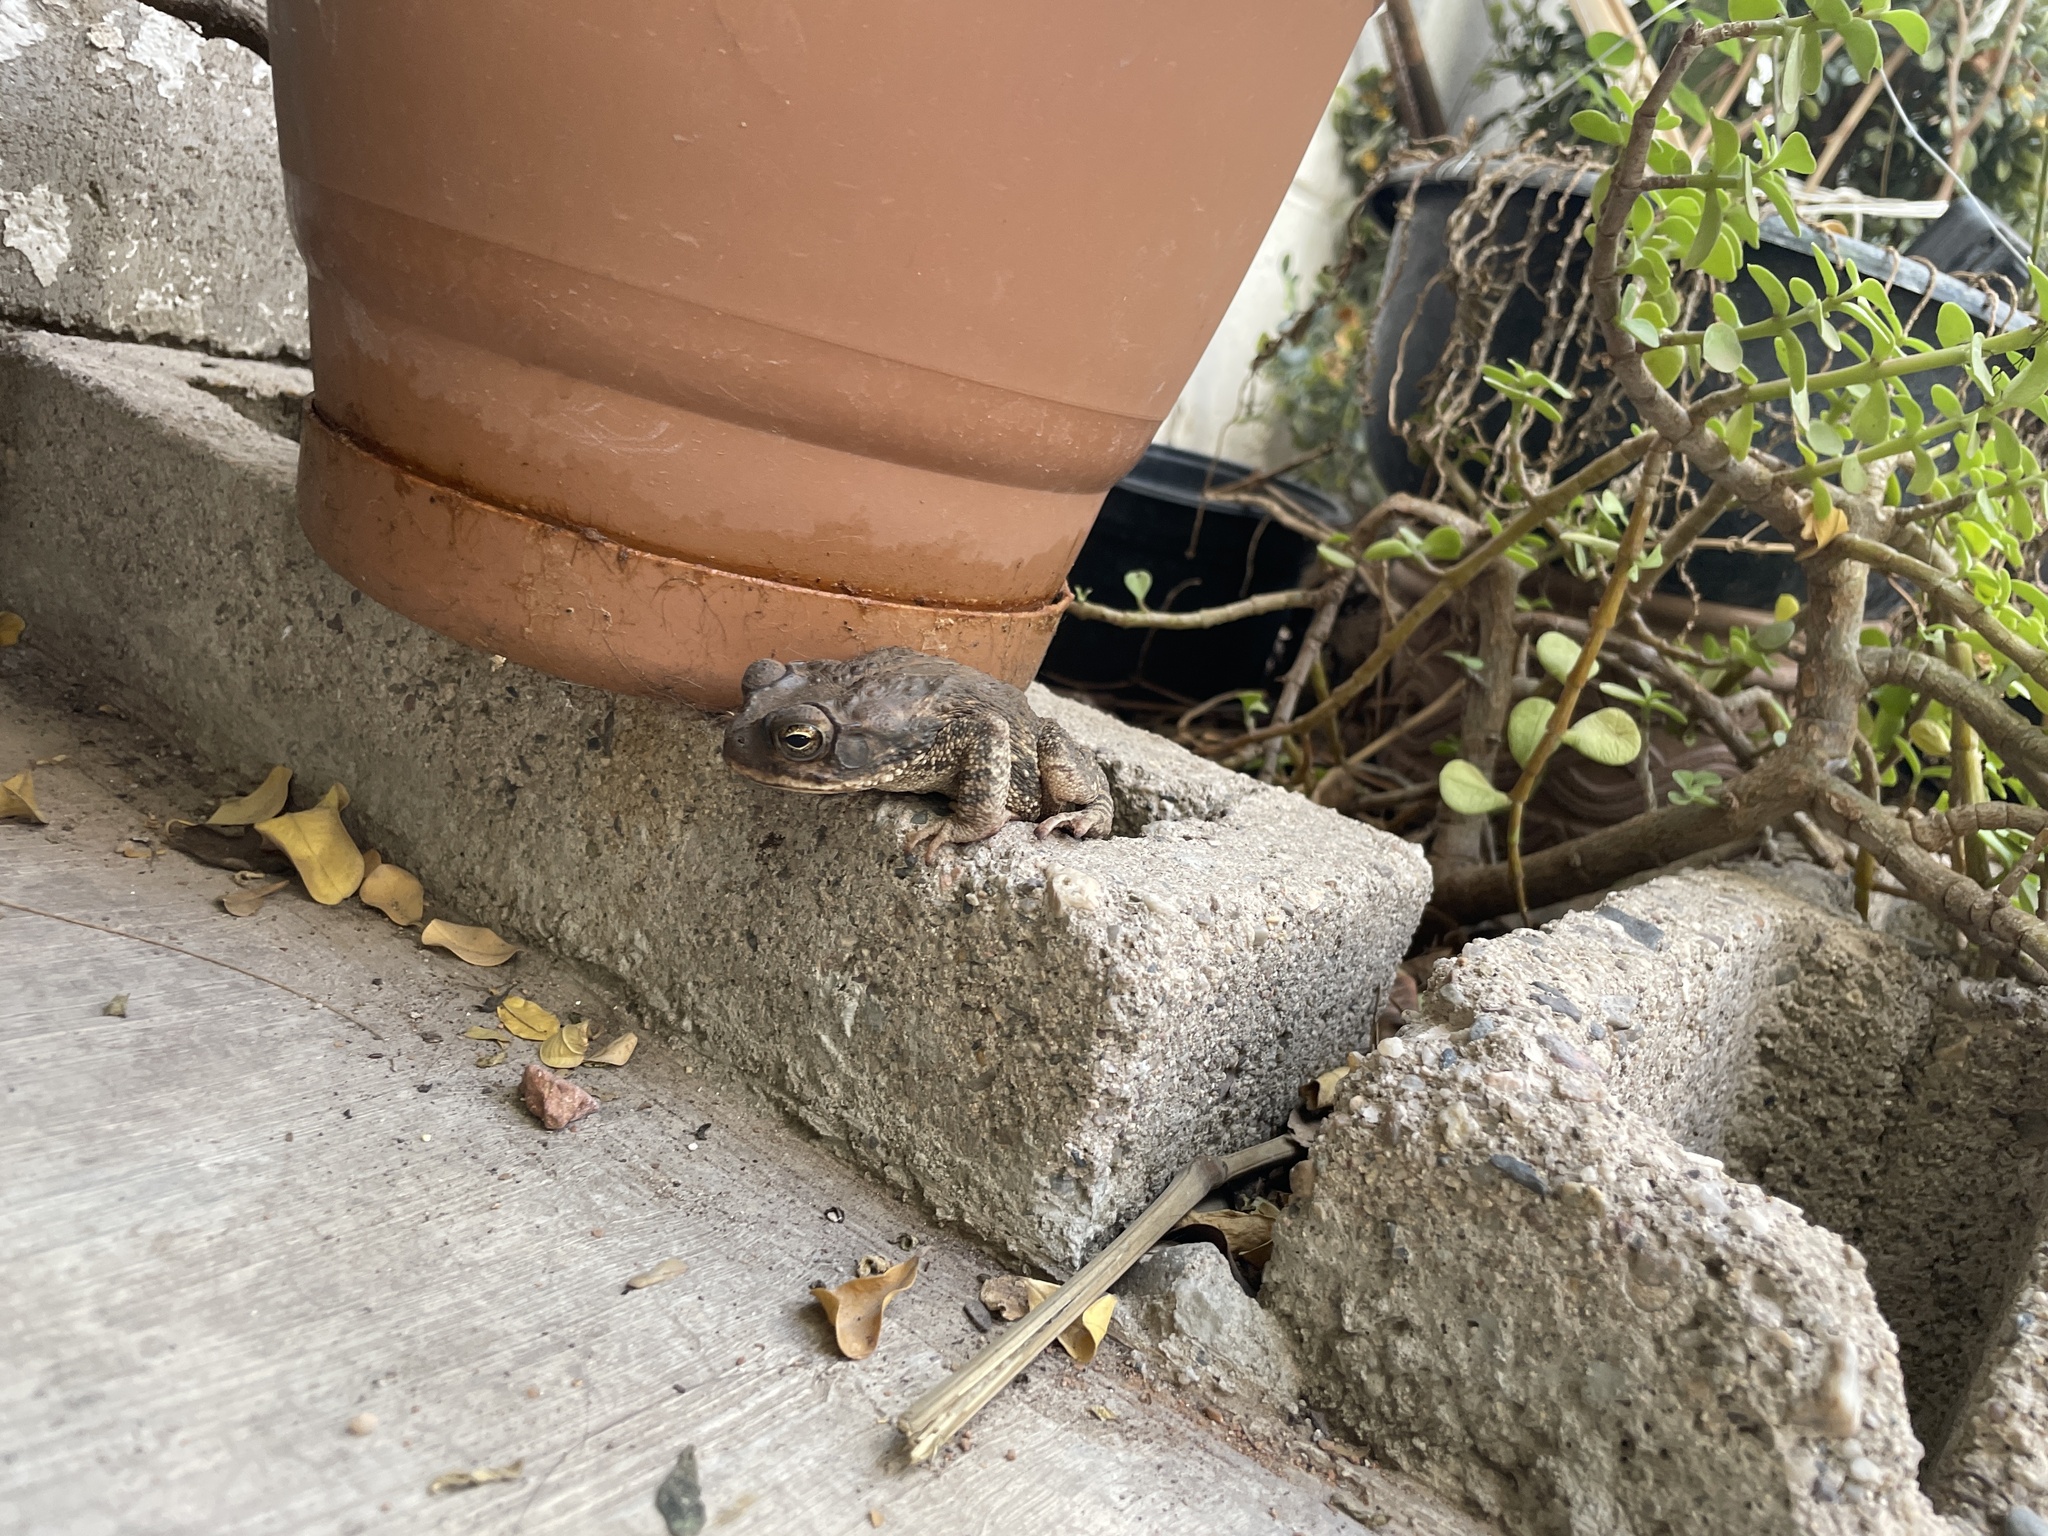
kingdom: Animalia
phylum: Chordata
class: Amphibia
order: Anura
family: Bufonidae
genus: Incilius
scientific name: Incilius mazatlanensis
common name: Sinaloa toad
